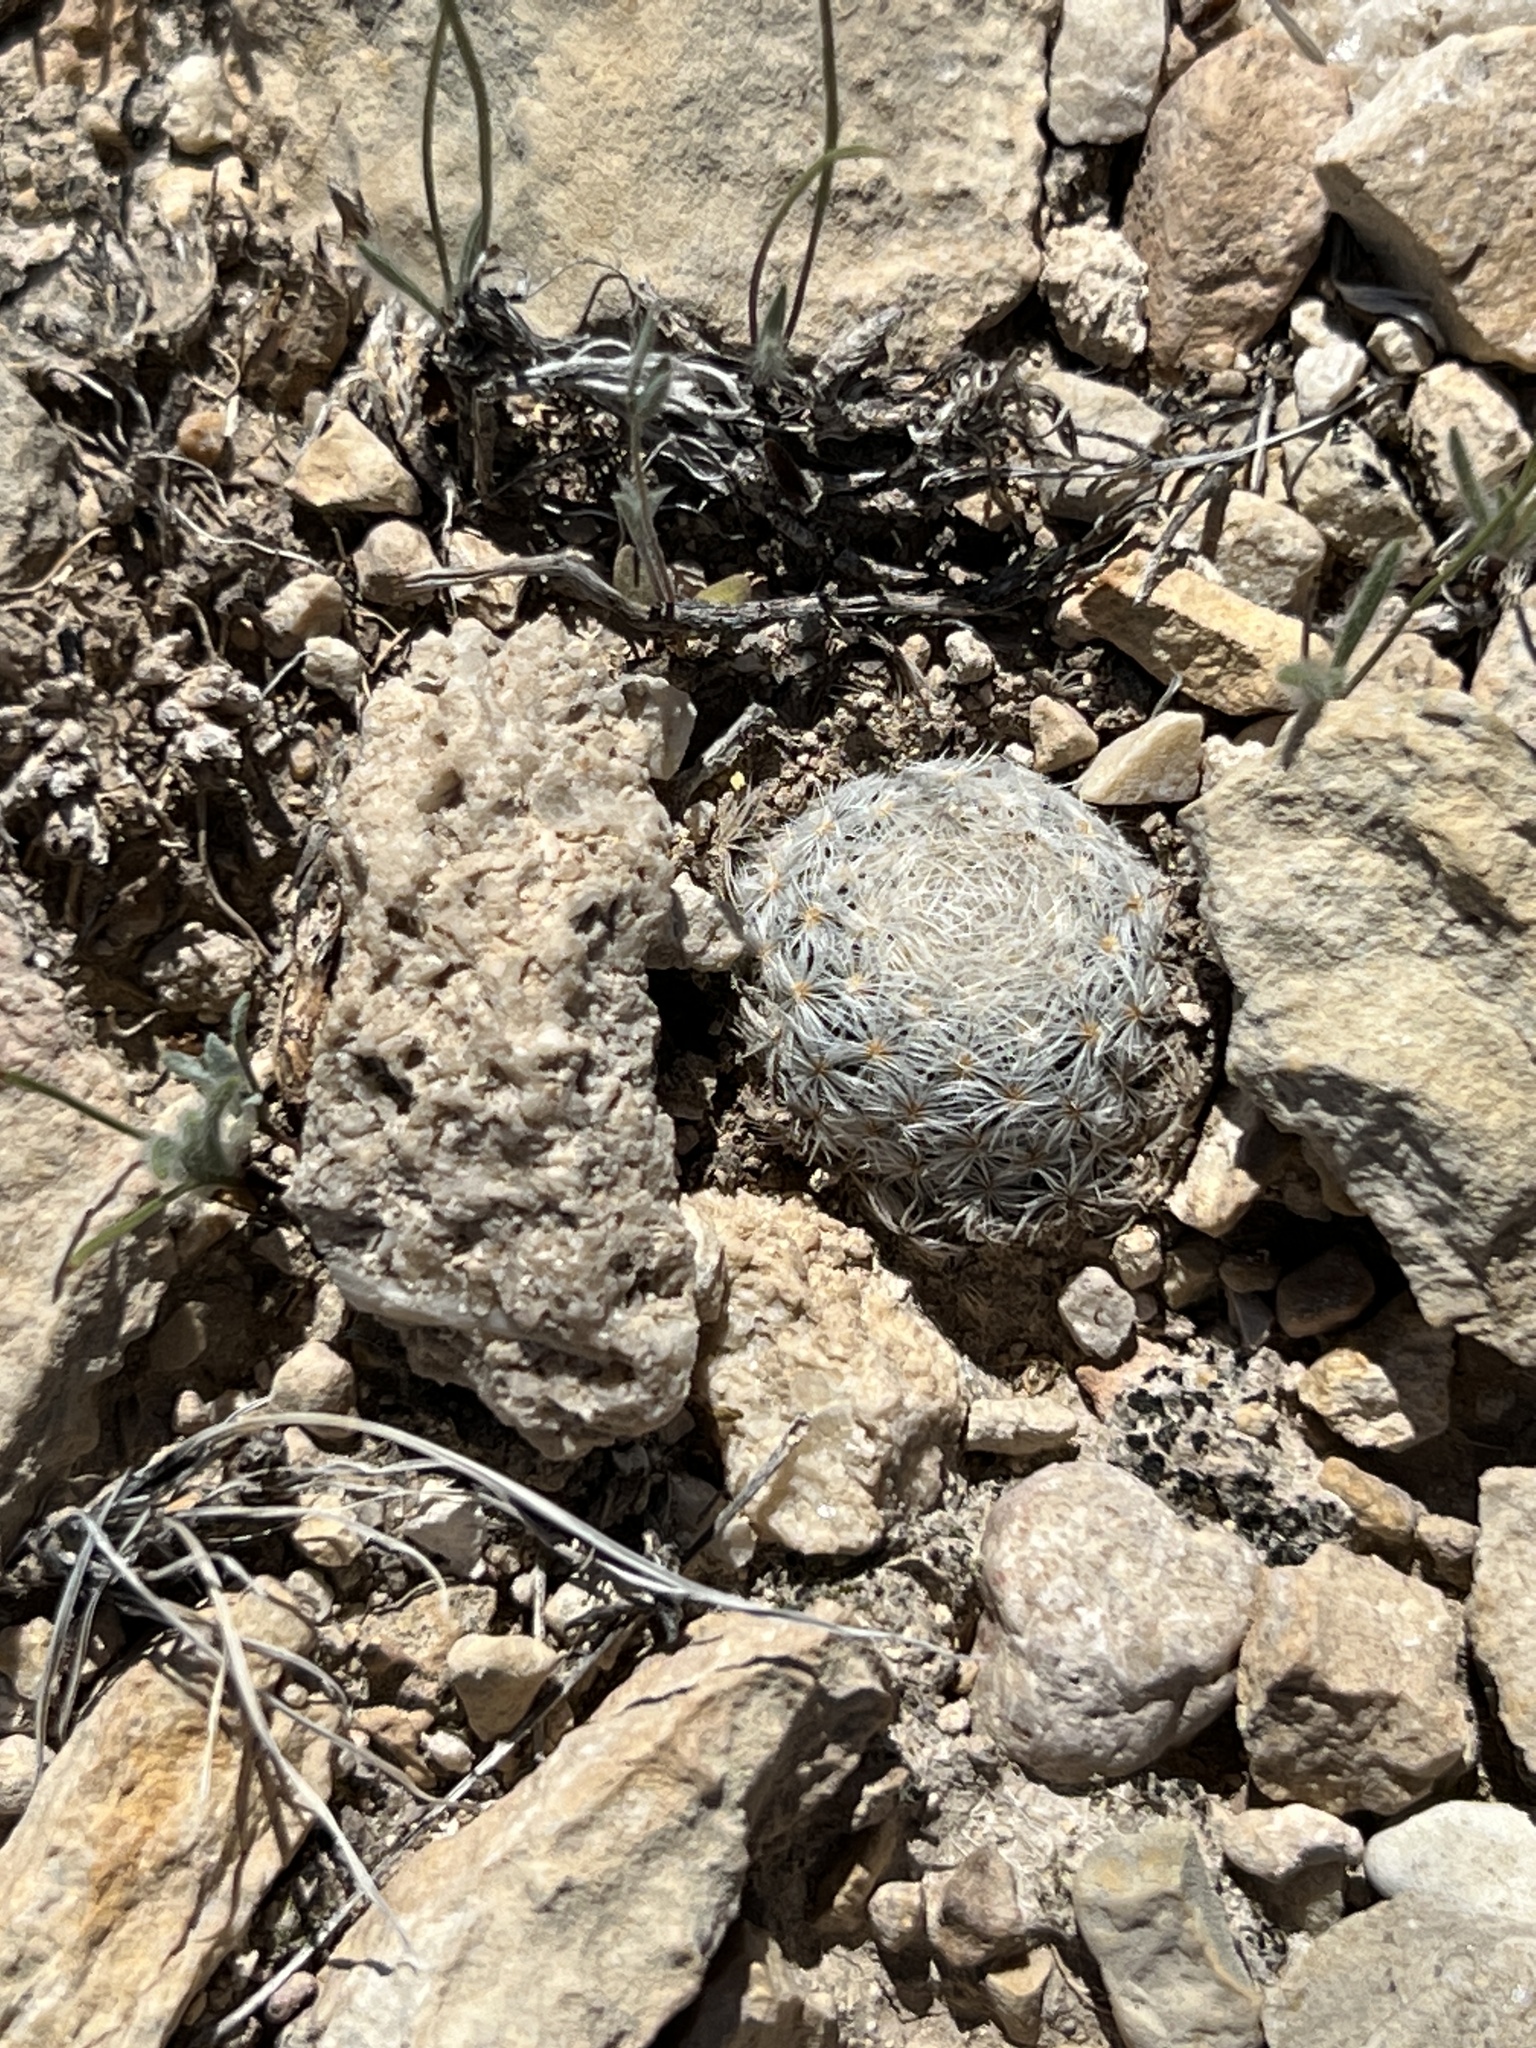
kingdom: Plantae
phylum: Tracheophyta
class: Magnoliopsida
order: Caryophyllales
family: Cactaceae
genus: Mammillaria
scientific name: Mammillaria lasiacantha
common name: Lace-spine nipple cactus
